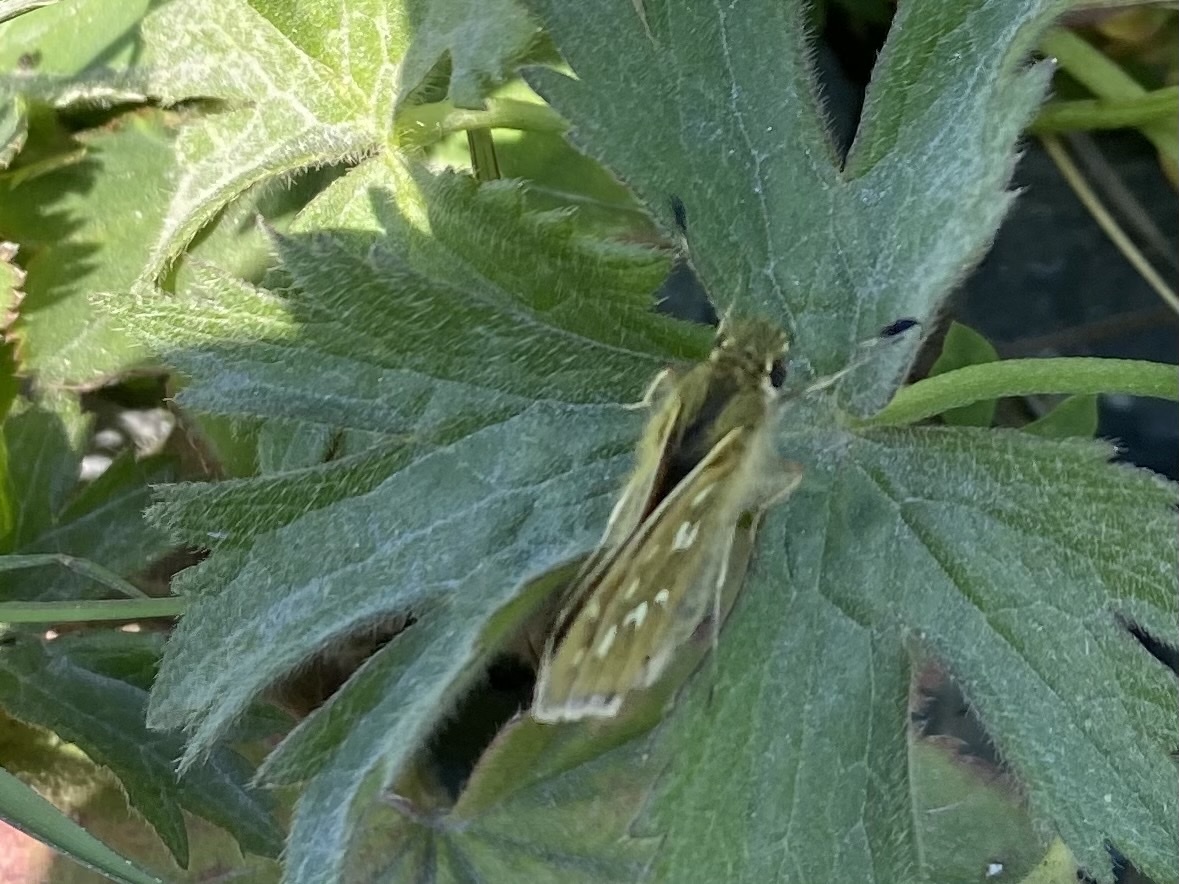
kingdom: Animalia
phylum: Arthropoda
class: Insecta
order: Lepidoptera
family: Hesperiidae
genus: Hesperia
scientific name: Hesperia comma
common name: Common branded skipper
